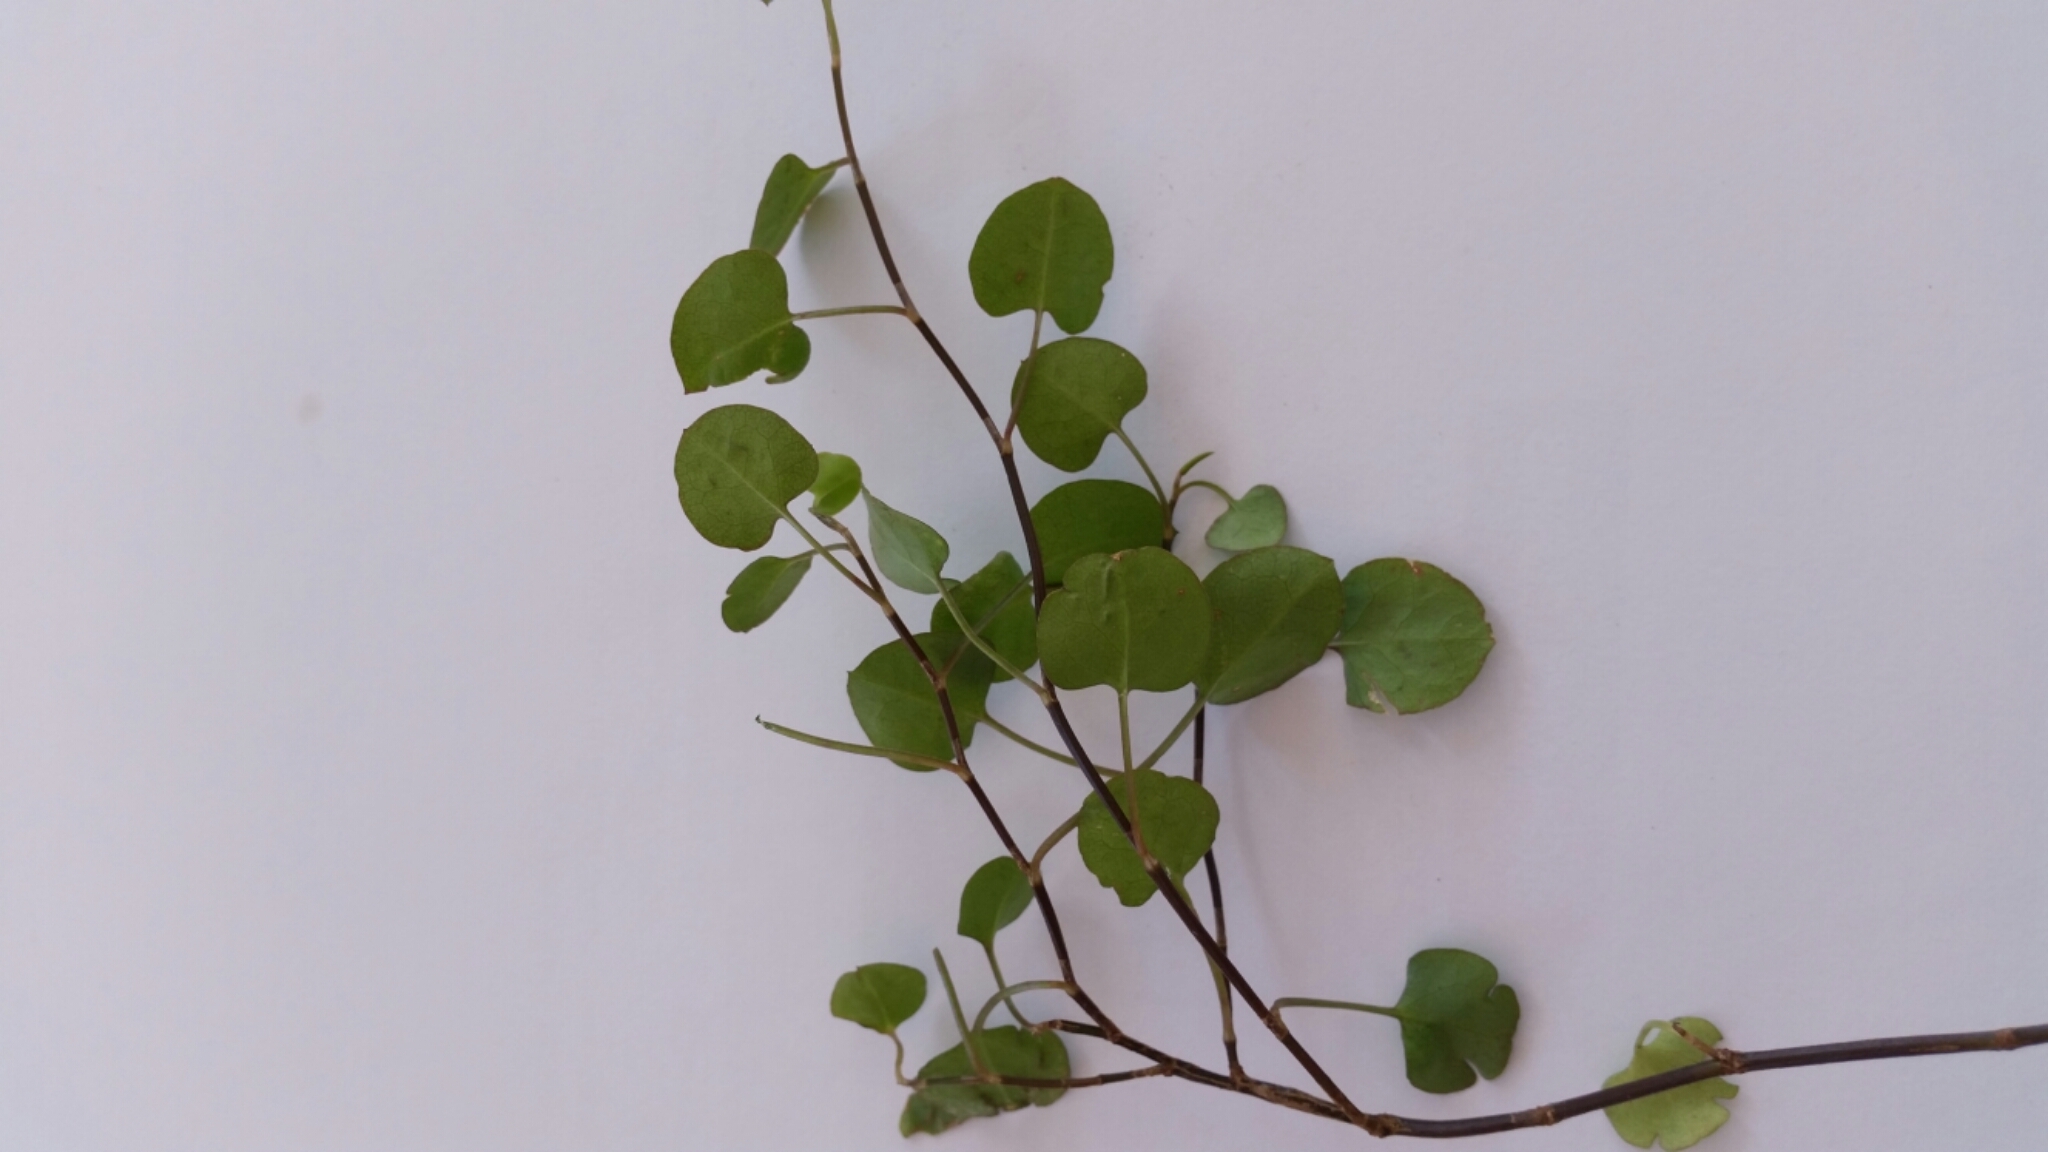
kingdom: Plantae
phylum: Tracheophyta
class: Magnoliopsida
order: Caryophyllales
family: Polygonaceae
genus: Muehlenbeckia
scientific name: Muehlenbeckia complexa
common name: Wireplant
